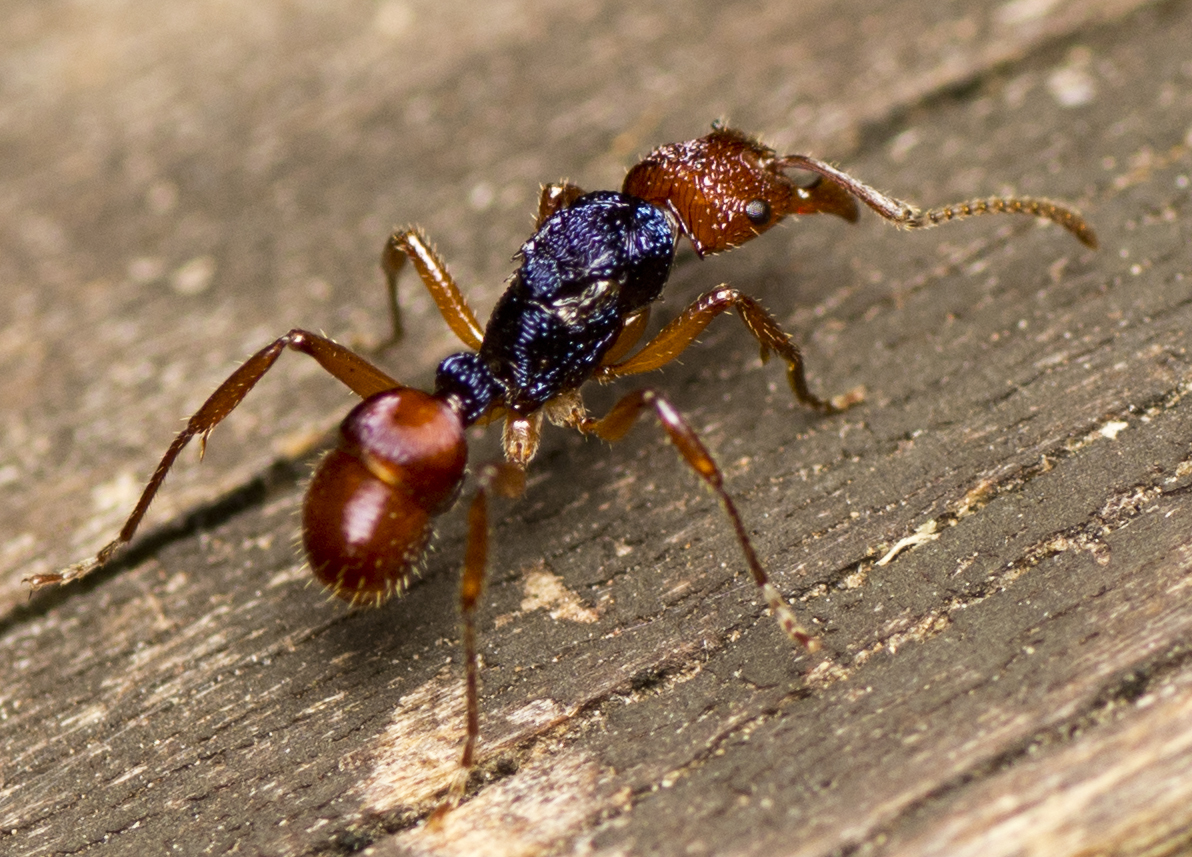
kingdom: Animalia
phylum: Arthropoda
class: Insecta
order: Hymenoptera
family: Formicidae
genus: Rhytidoponera
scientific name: Rhytidoponera croesus
